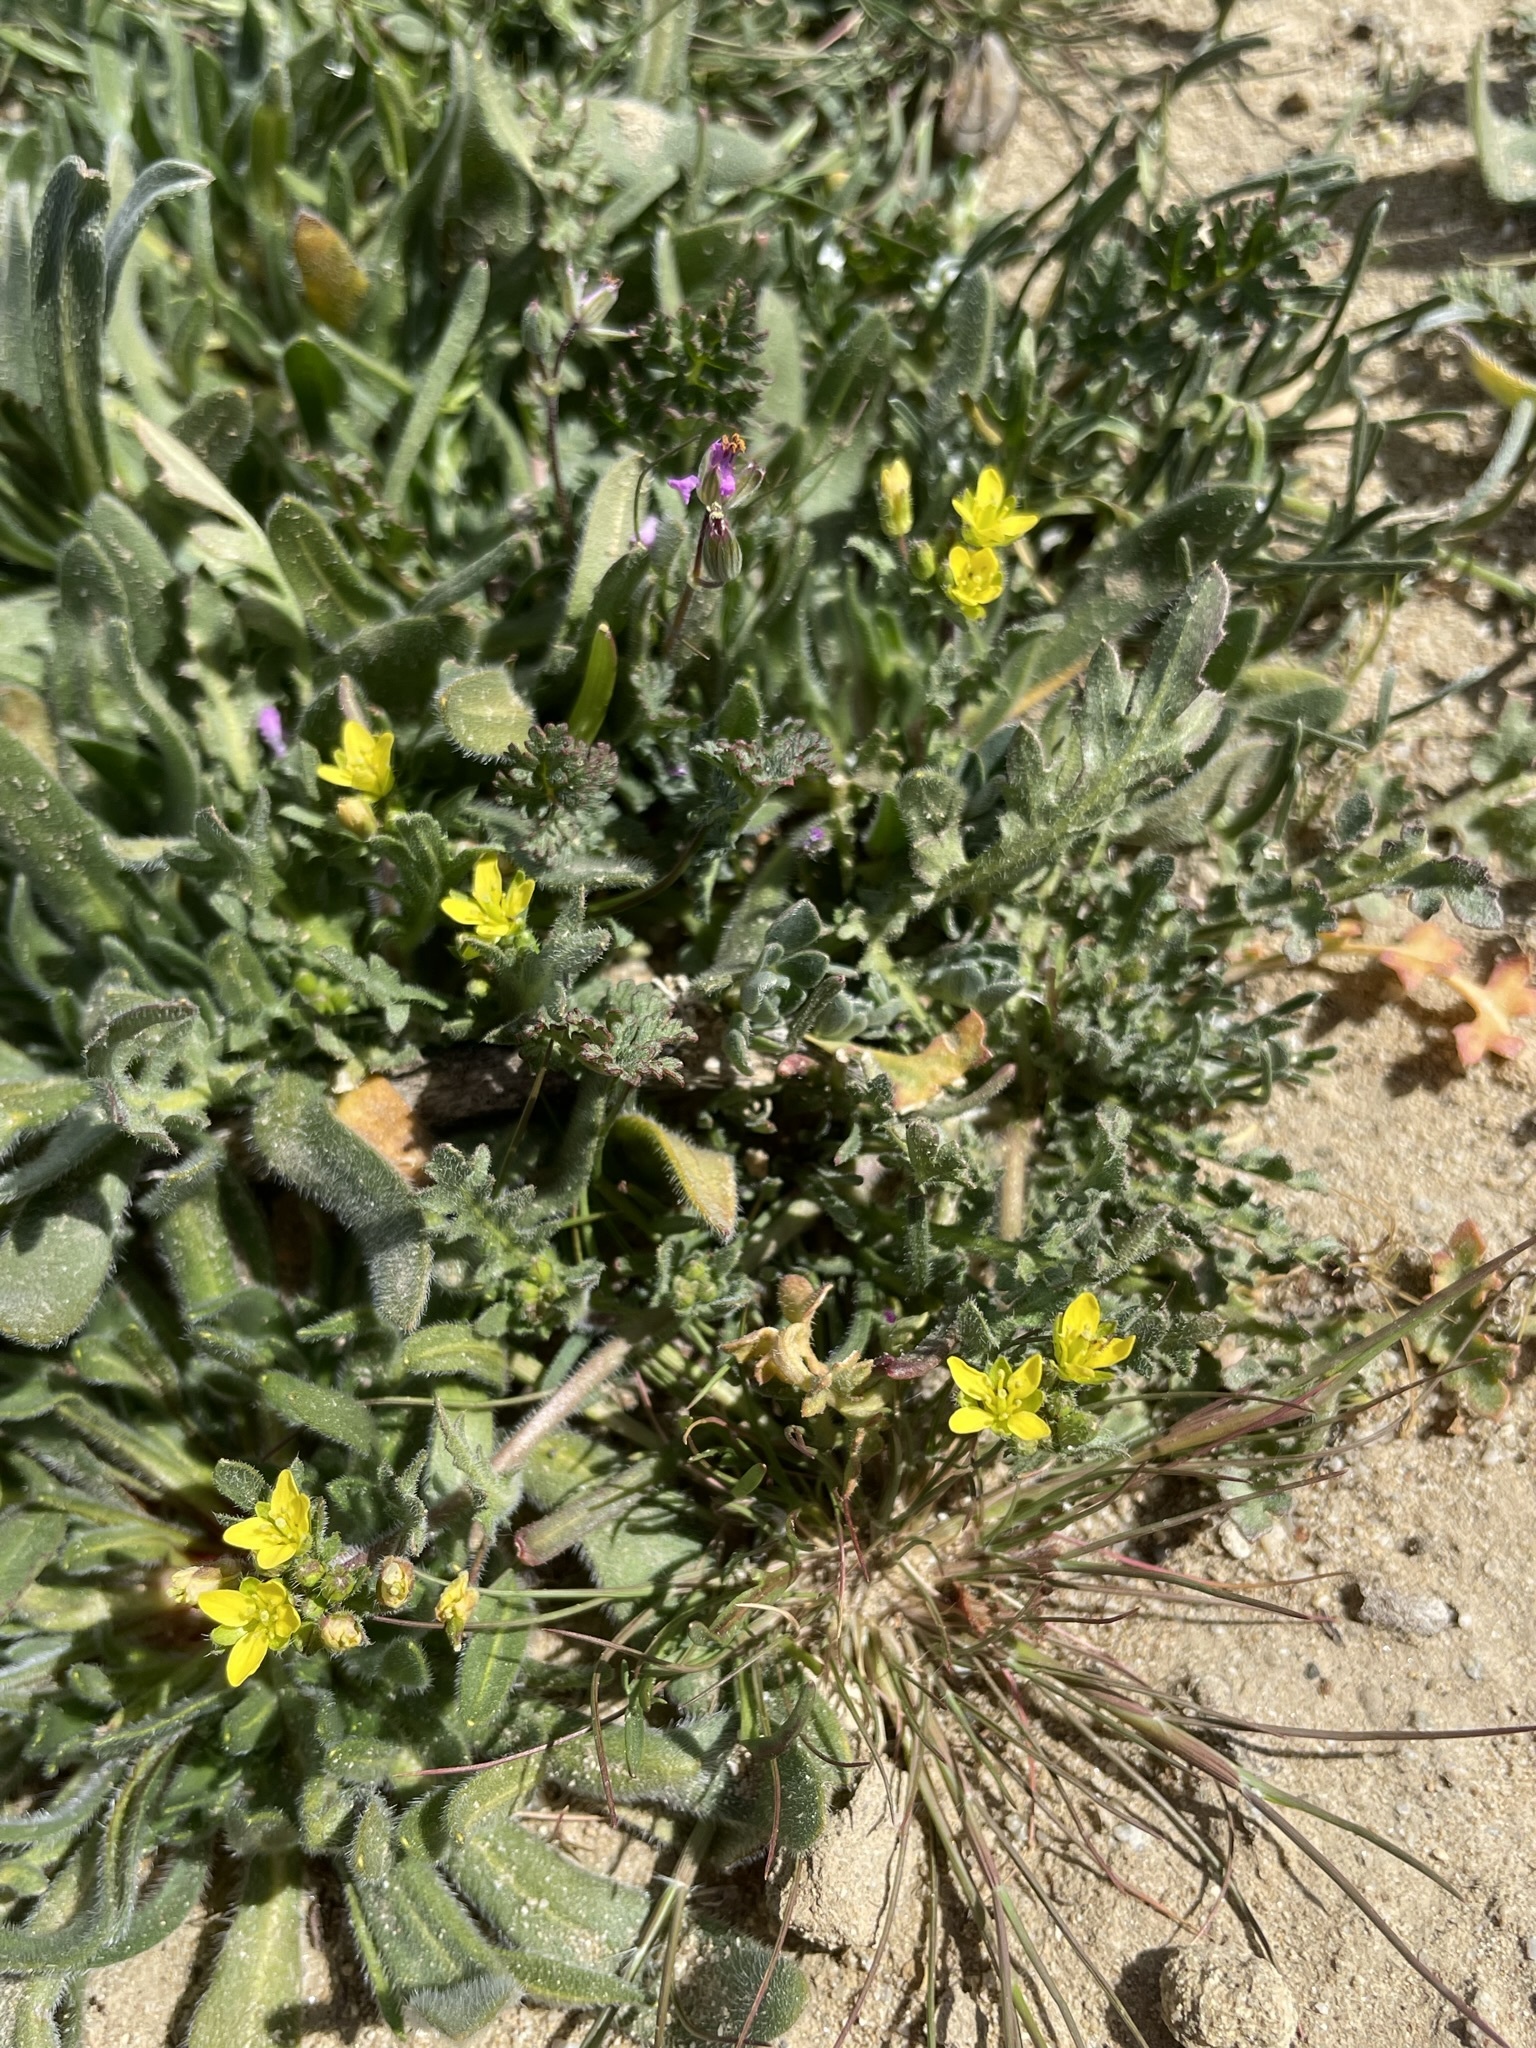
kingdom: Plantae
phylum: Tracheophyta
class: Magnoliopsida
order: Brassicales
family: Brassicaceae
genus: Tropidocarpum
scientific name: Tropidocarpum gracile
